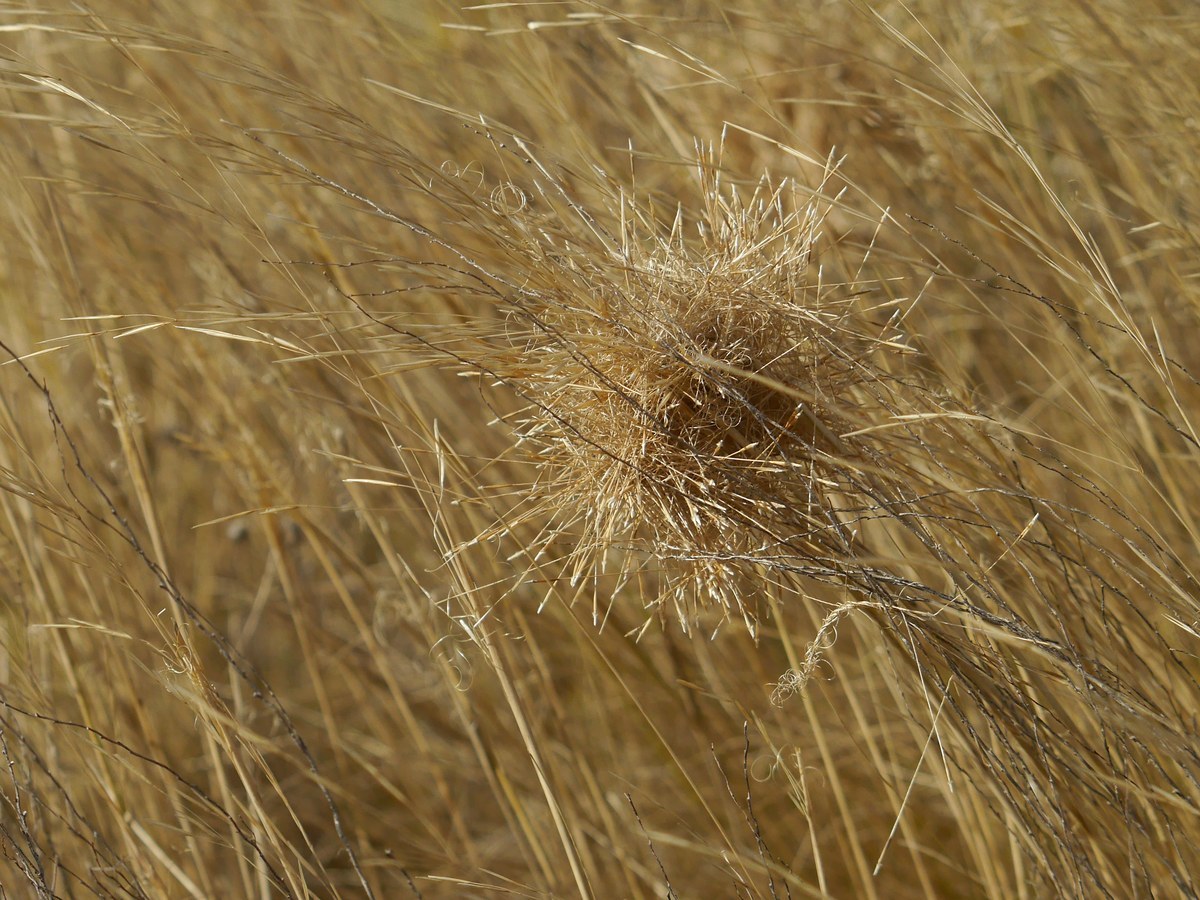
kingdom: Plantae
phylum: Tracheophyta
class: Liliopsida
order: Poales
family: Poaceae
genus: Stipa
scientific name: Stipa capillata
